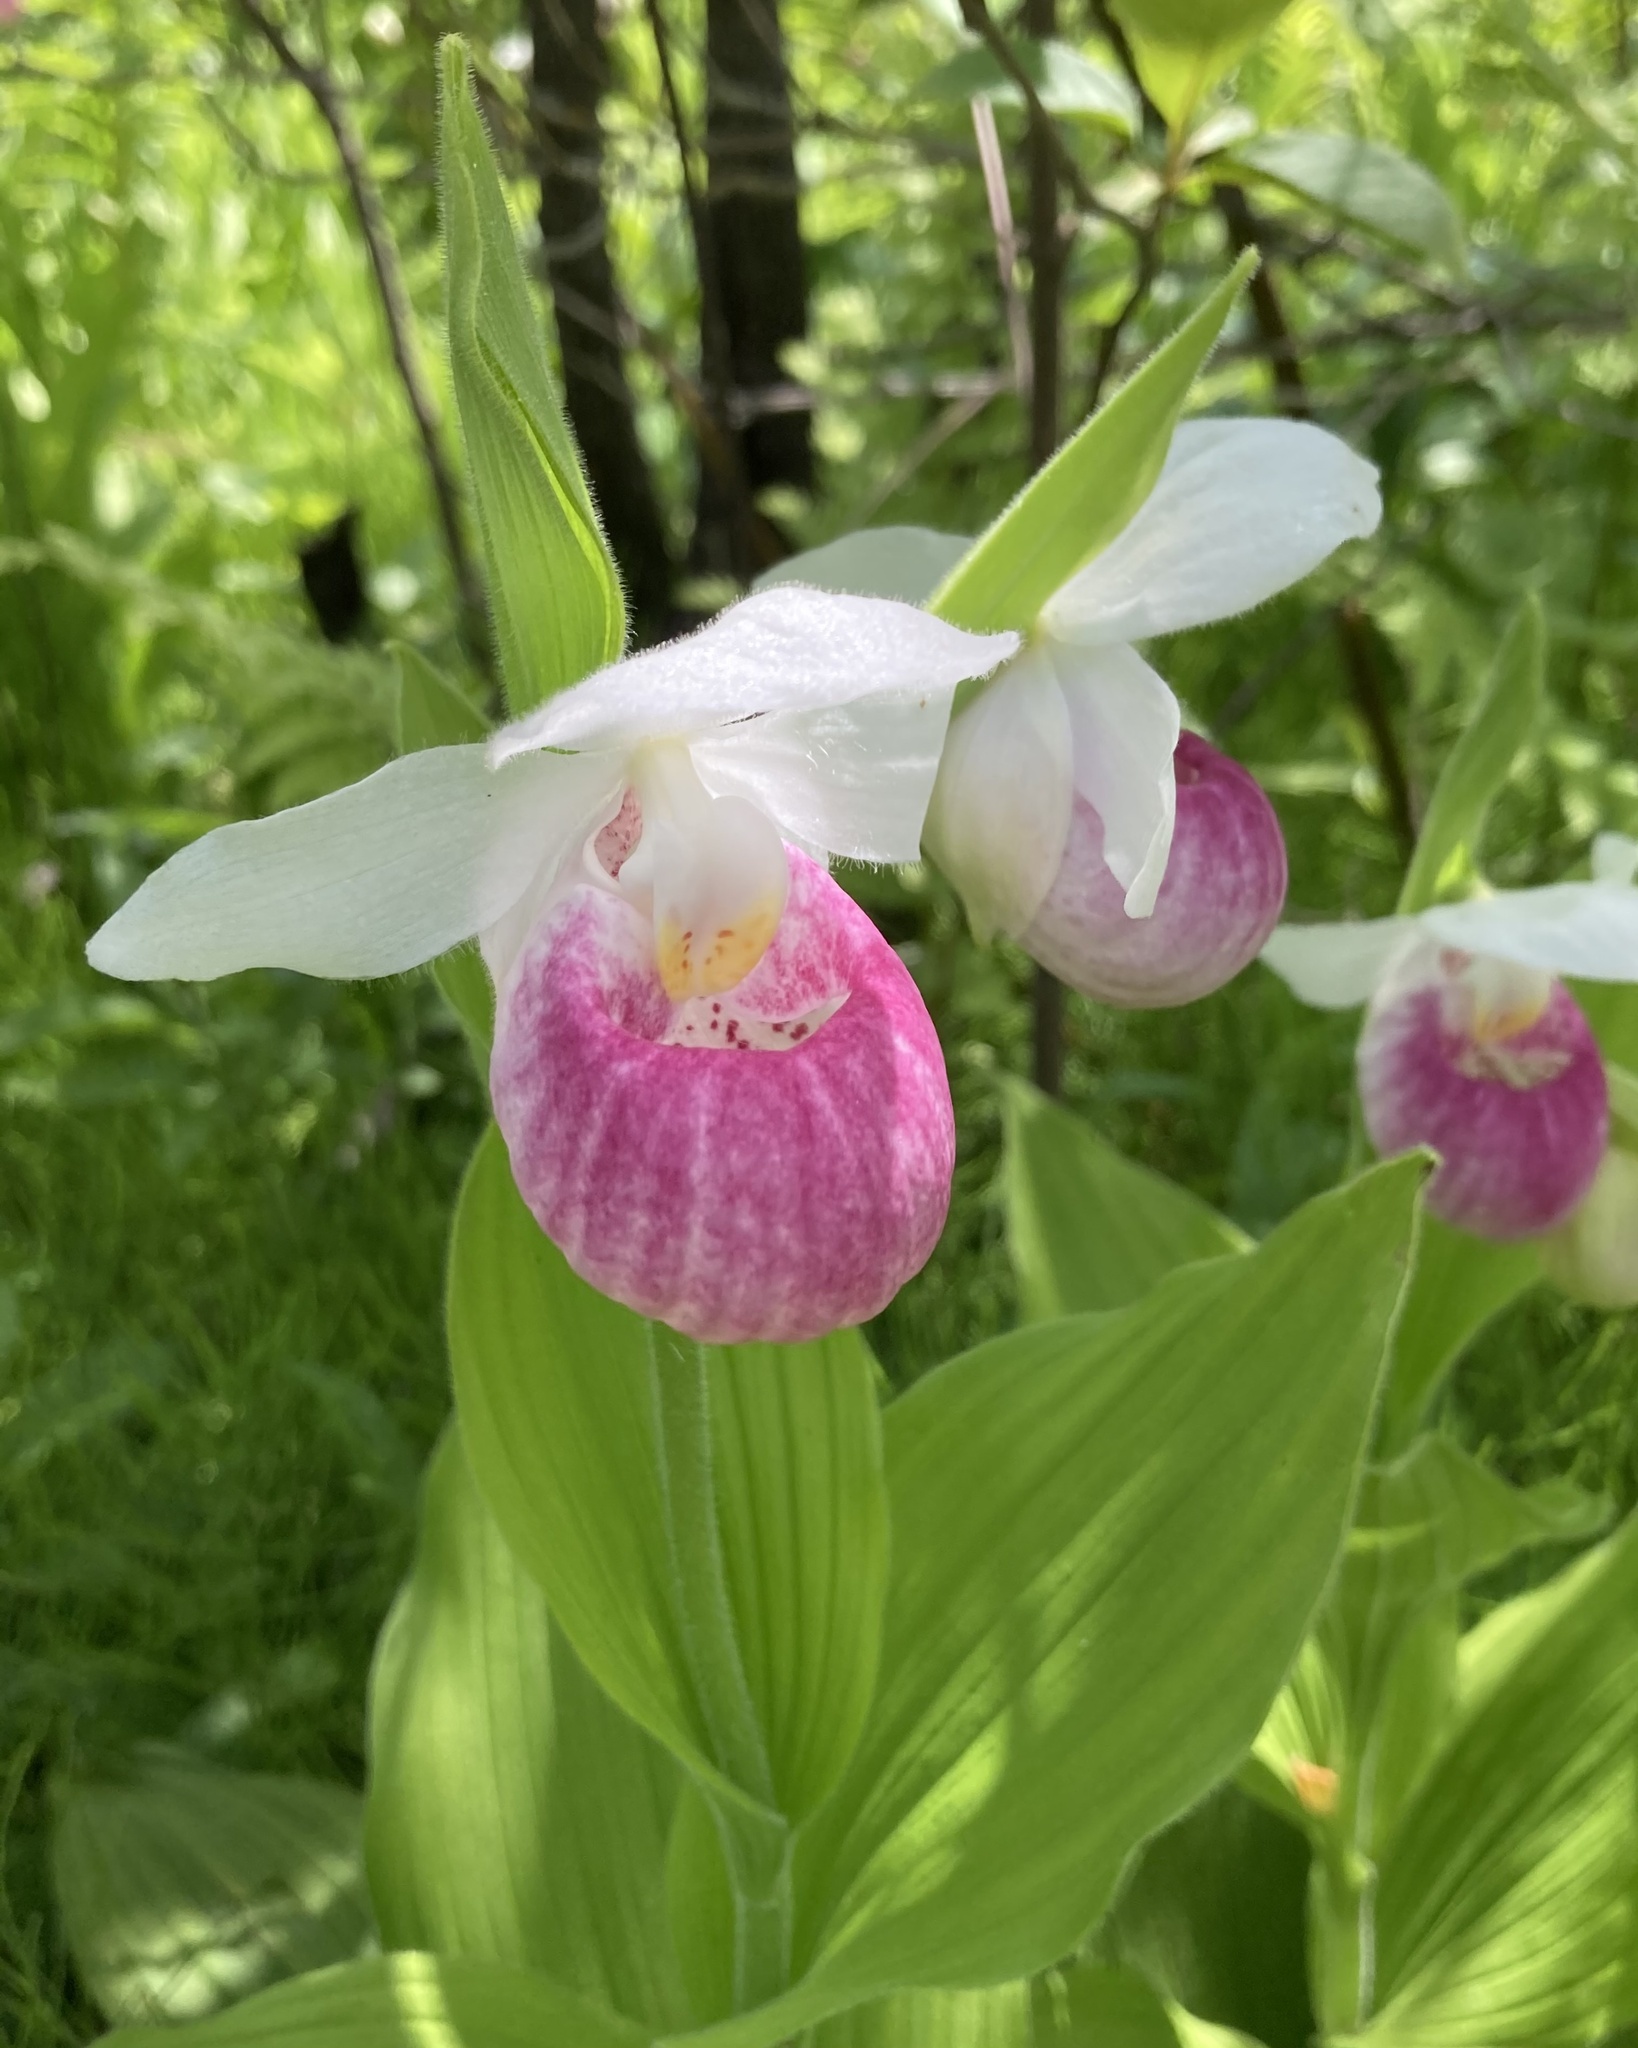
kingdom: Plantae
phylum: Tracheophyta
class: Liliopsida
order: Asparagales
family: Orchidaceae
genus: Cypripedium
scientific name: Cypripedium reginae
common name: Queen lady's-slipper
